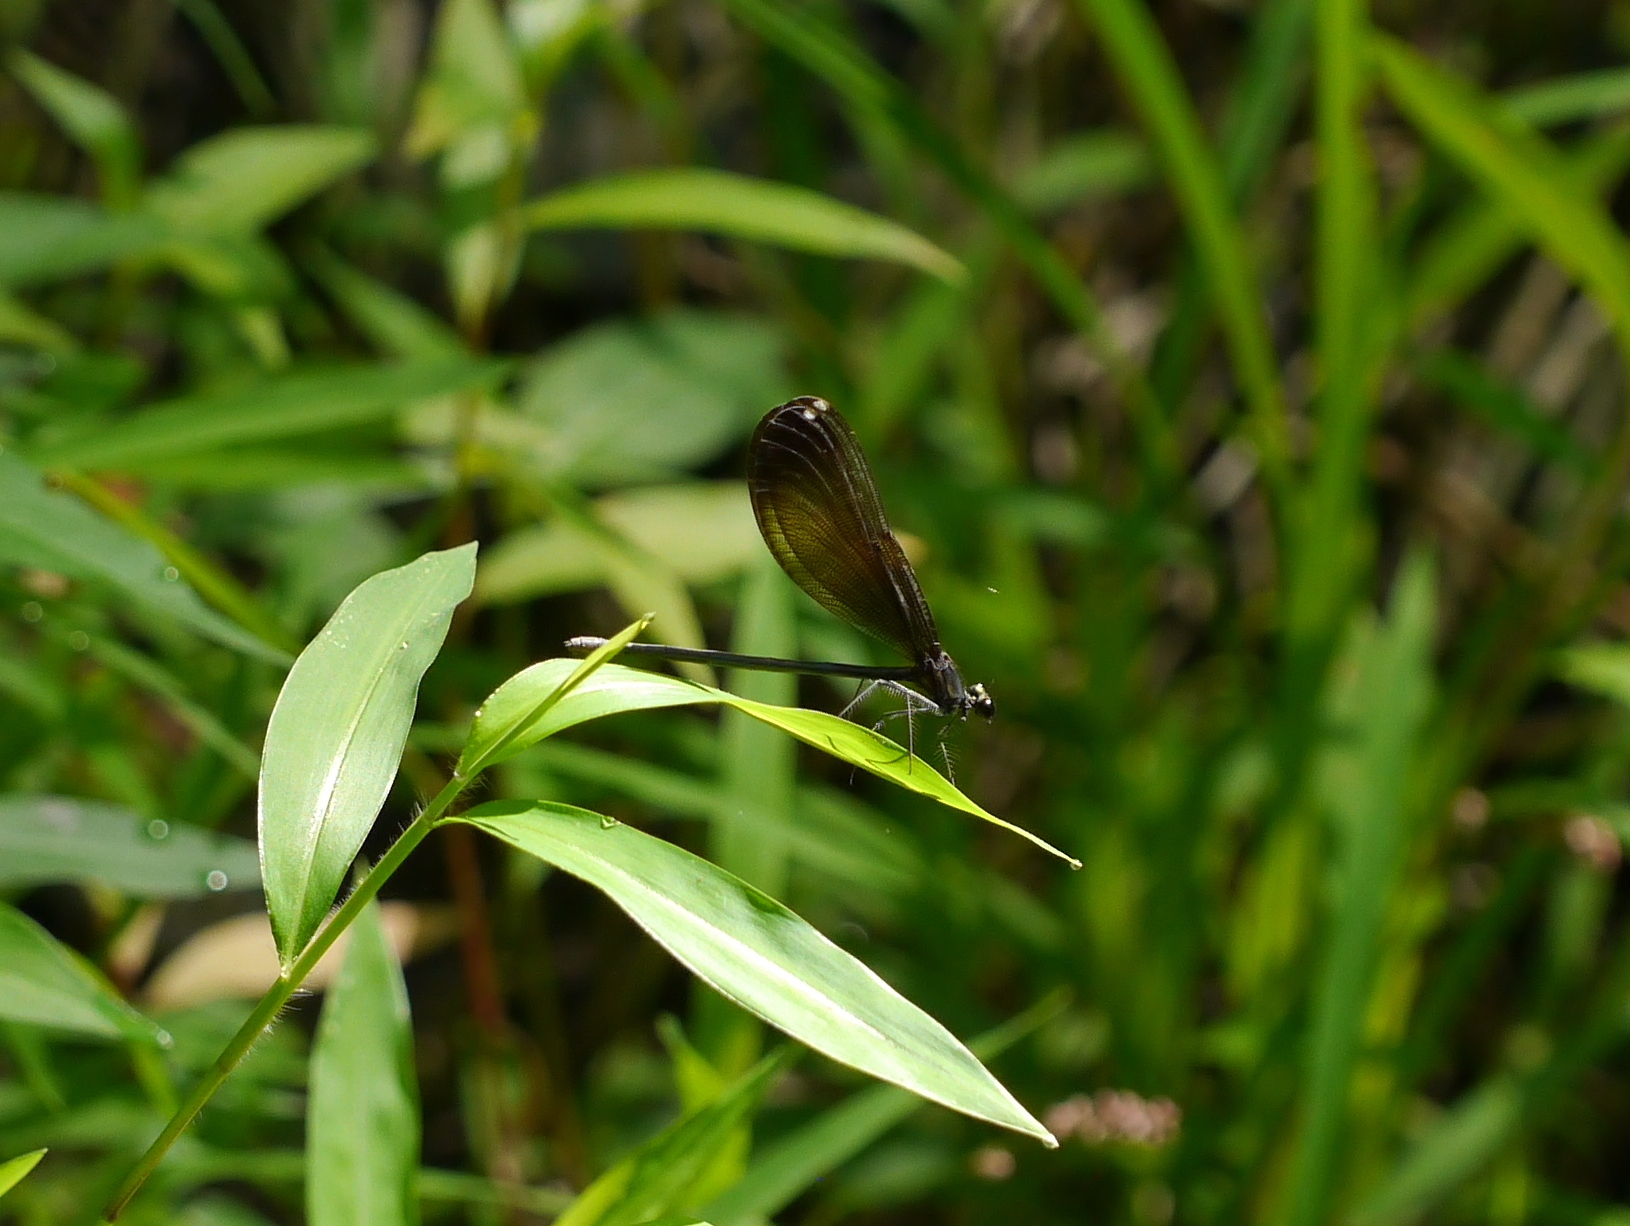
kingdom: Animalia
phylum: Arthropoda
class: Insecta
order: Odonata
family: Calopterygidae
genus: Calopteryx
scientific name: Calopteryx maculata
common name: Ebony jewelwing
